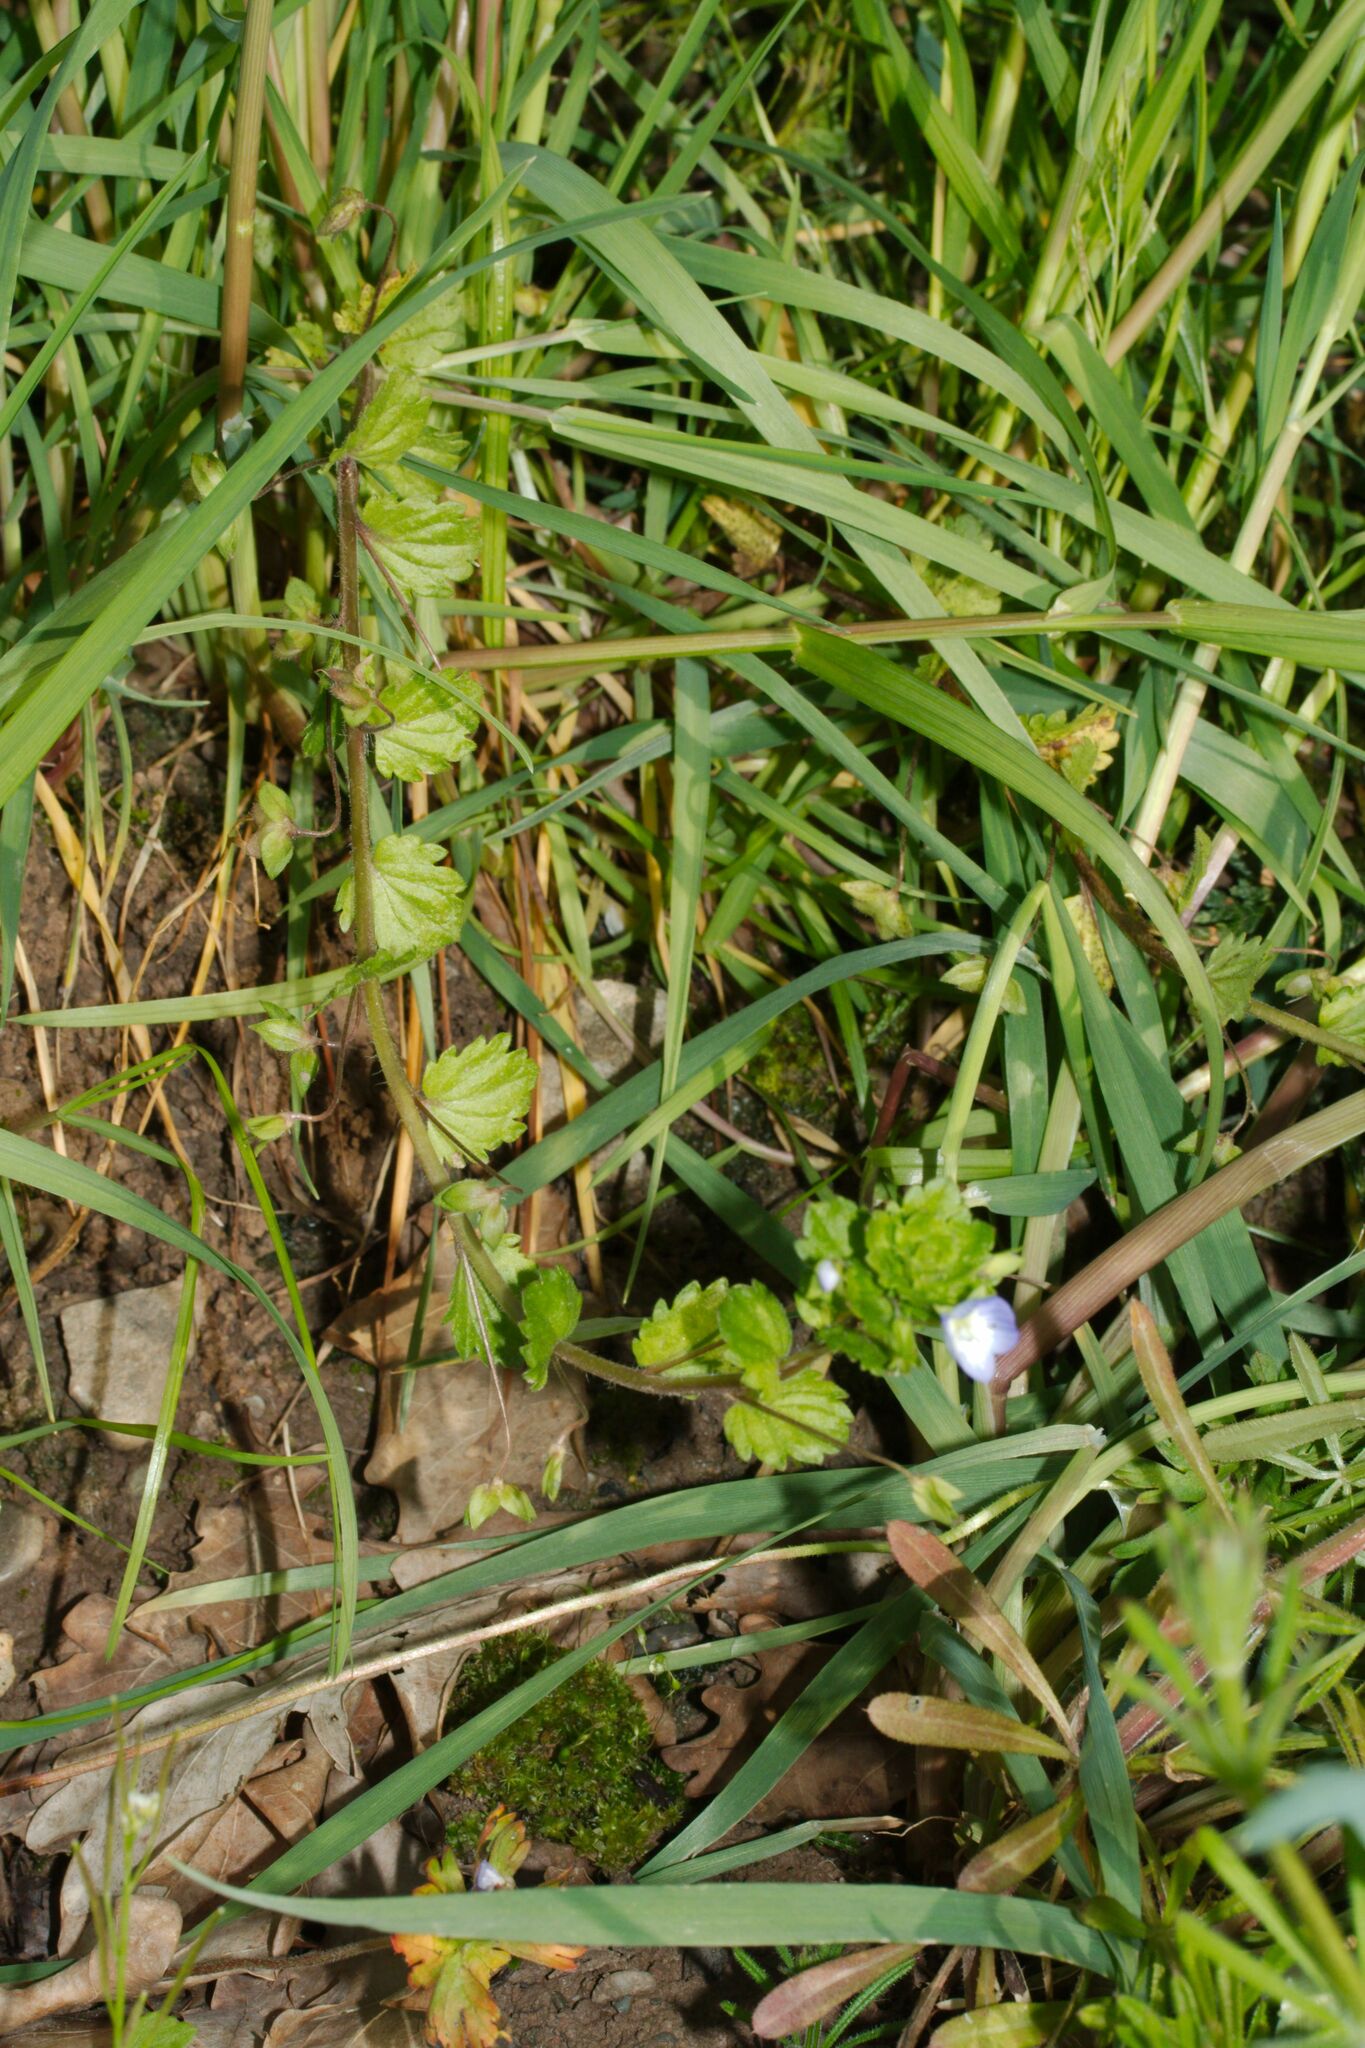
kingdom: Plantae
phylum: Tracheophyta
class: Magnoliopsida
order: Lamiales
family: Plantaginaceae
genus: Veronica
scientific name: Veronica persica
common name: Common field-speedwell
